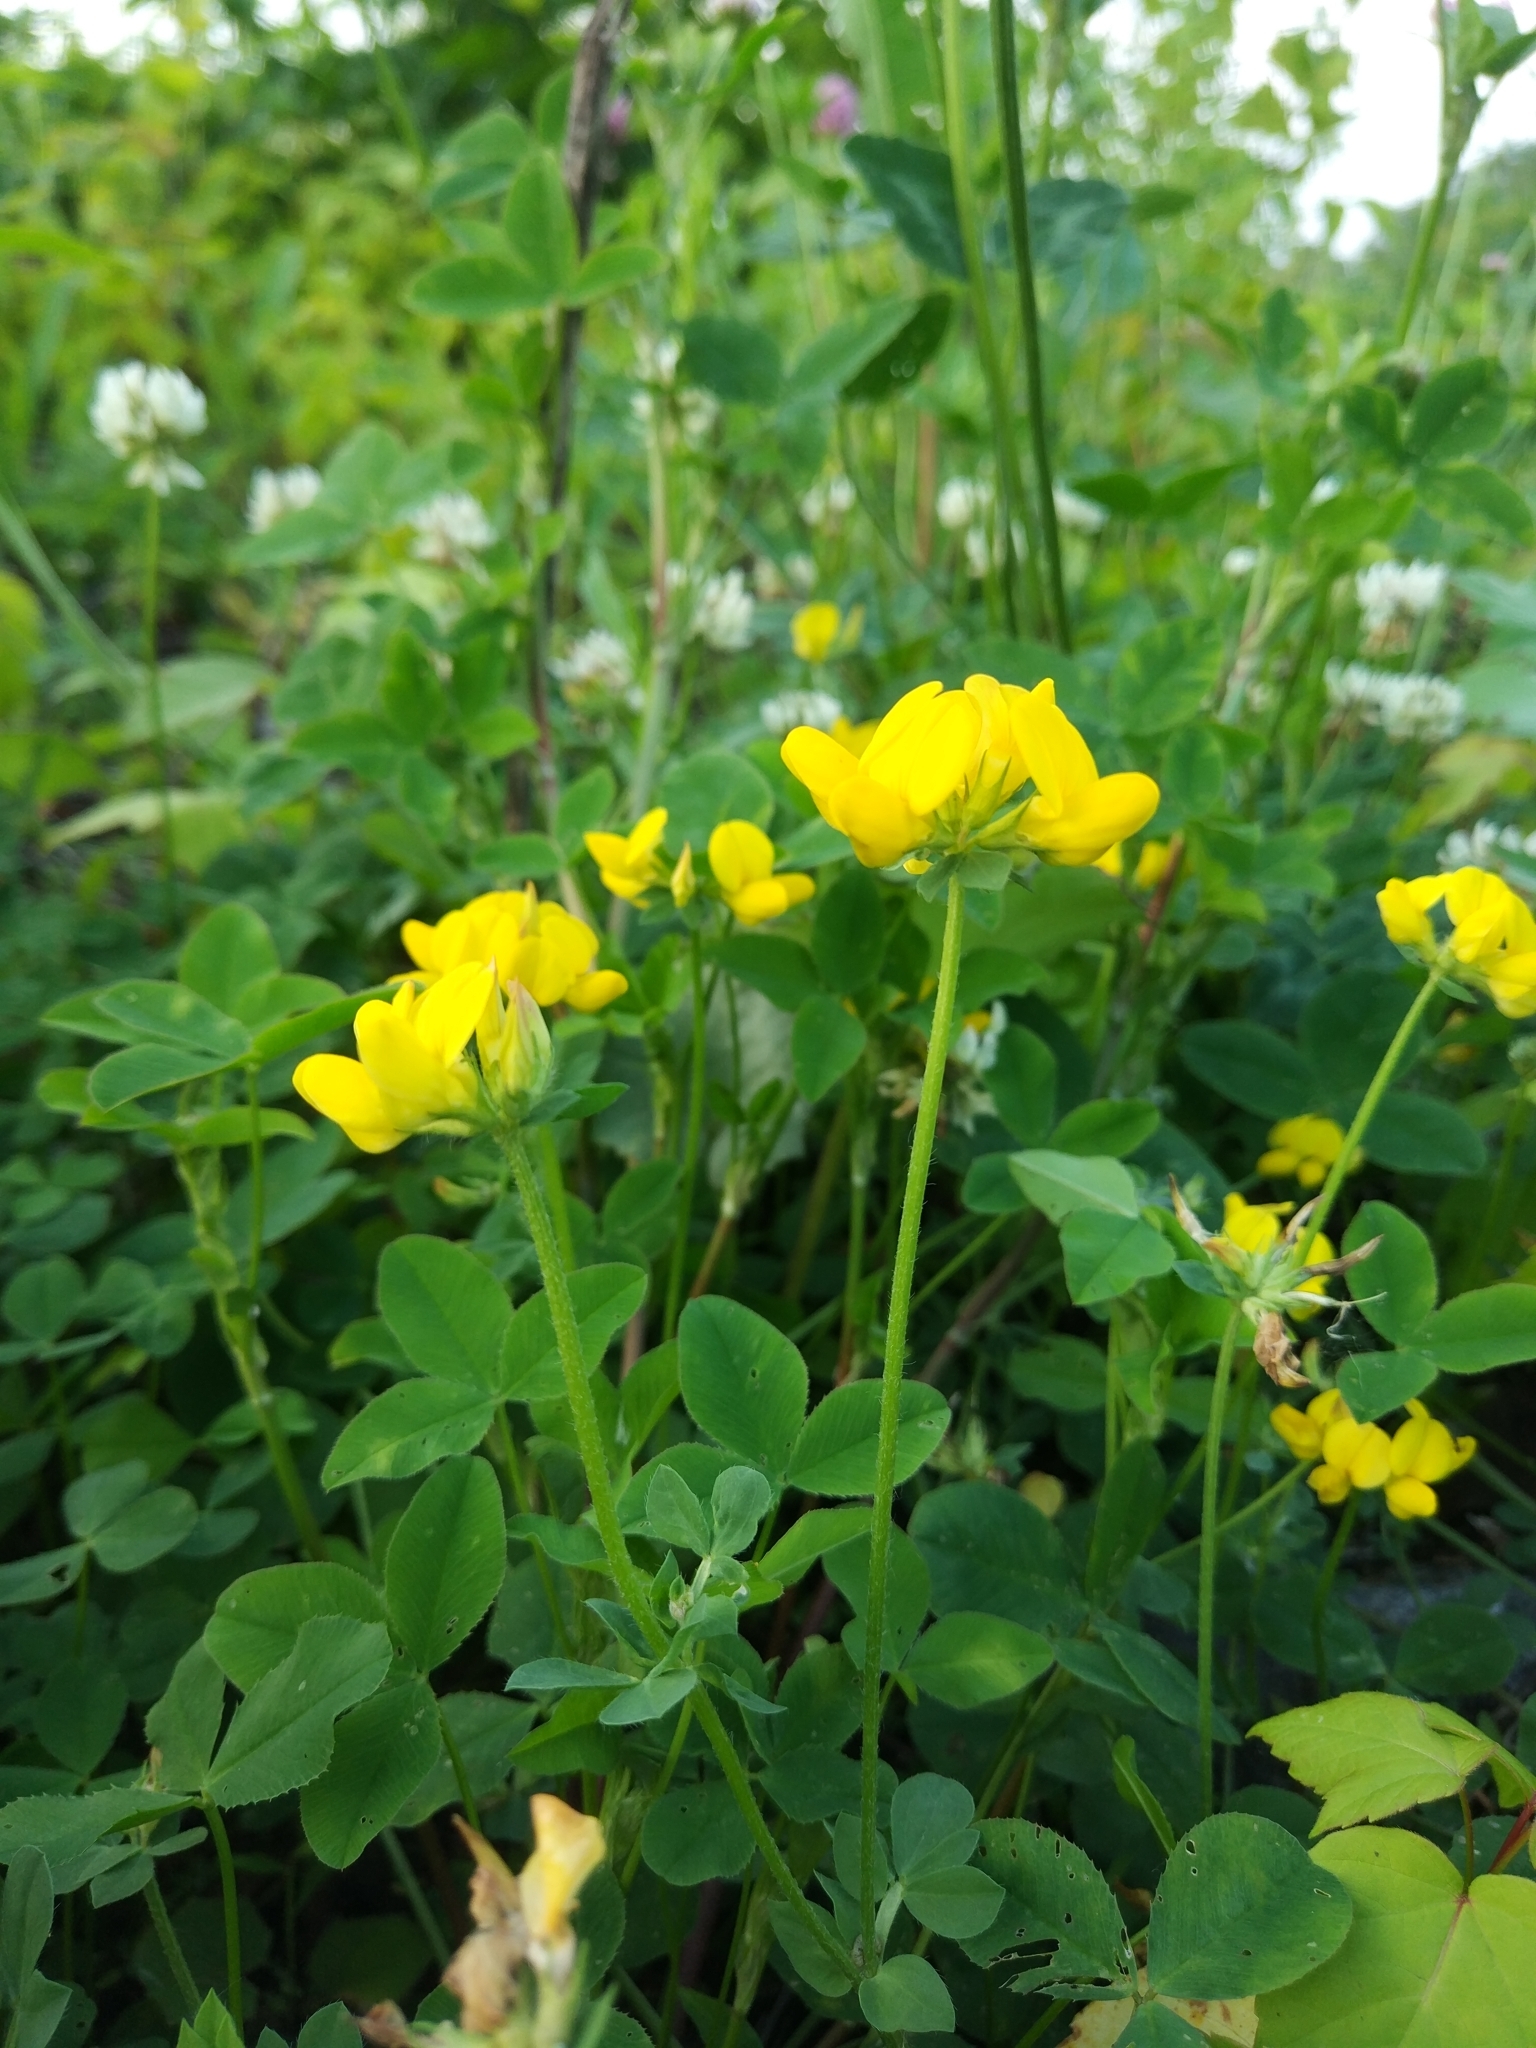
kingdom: Plantae
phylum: Tracheophyta
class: Magnoliopsida
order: Fabales
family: Fabaceae
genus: Lotus
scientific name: Lotus corniculatus
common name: Common bird's-foot-trefoil
